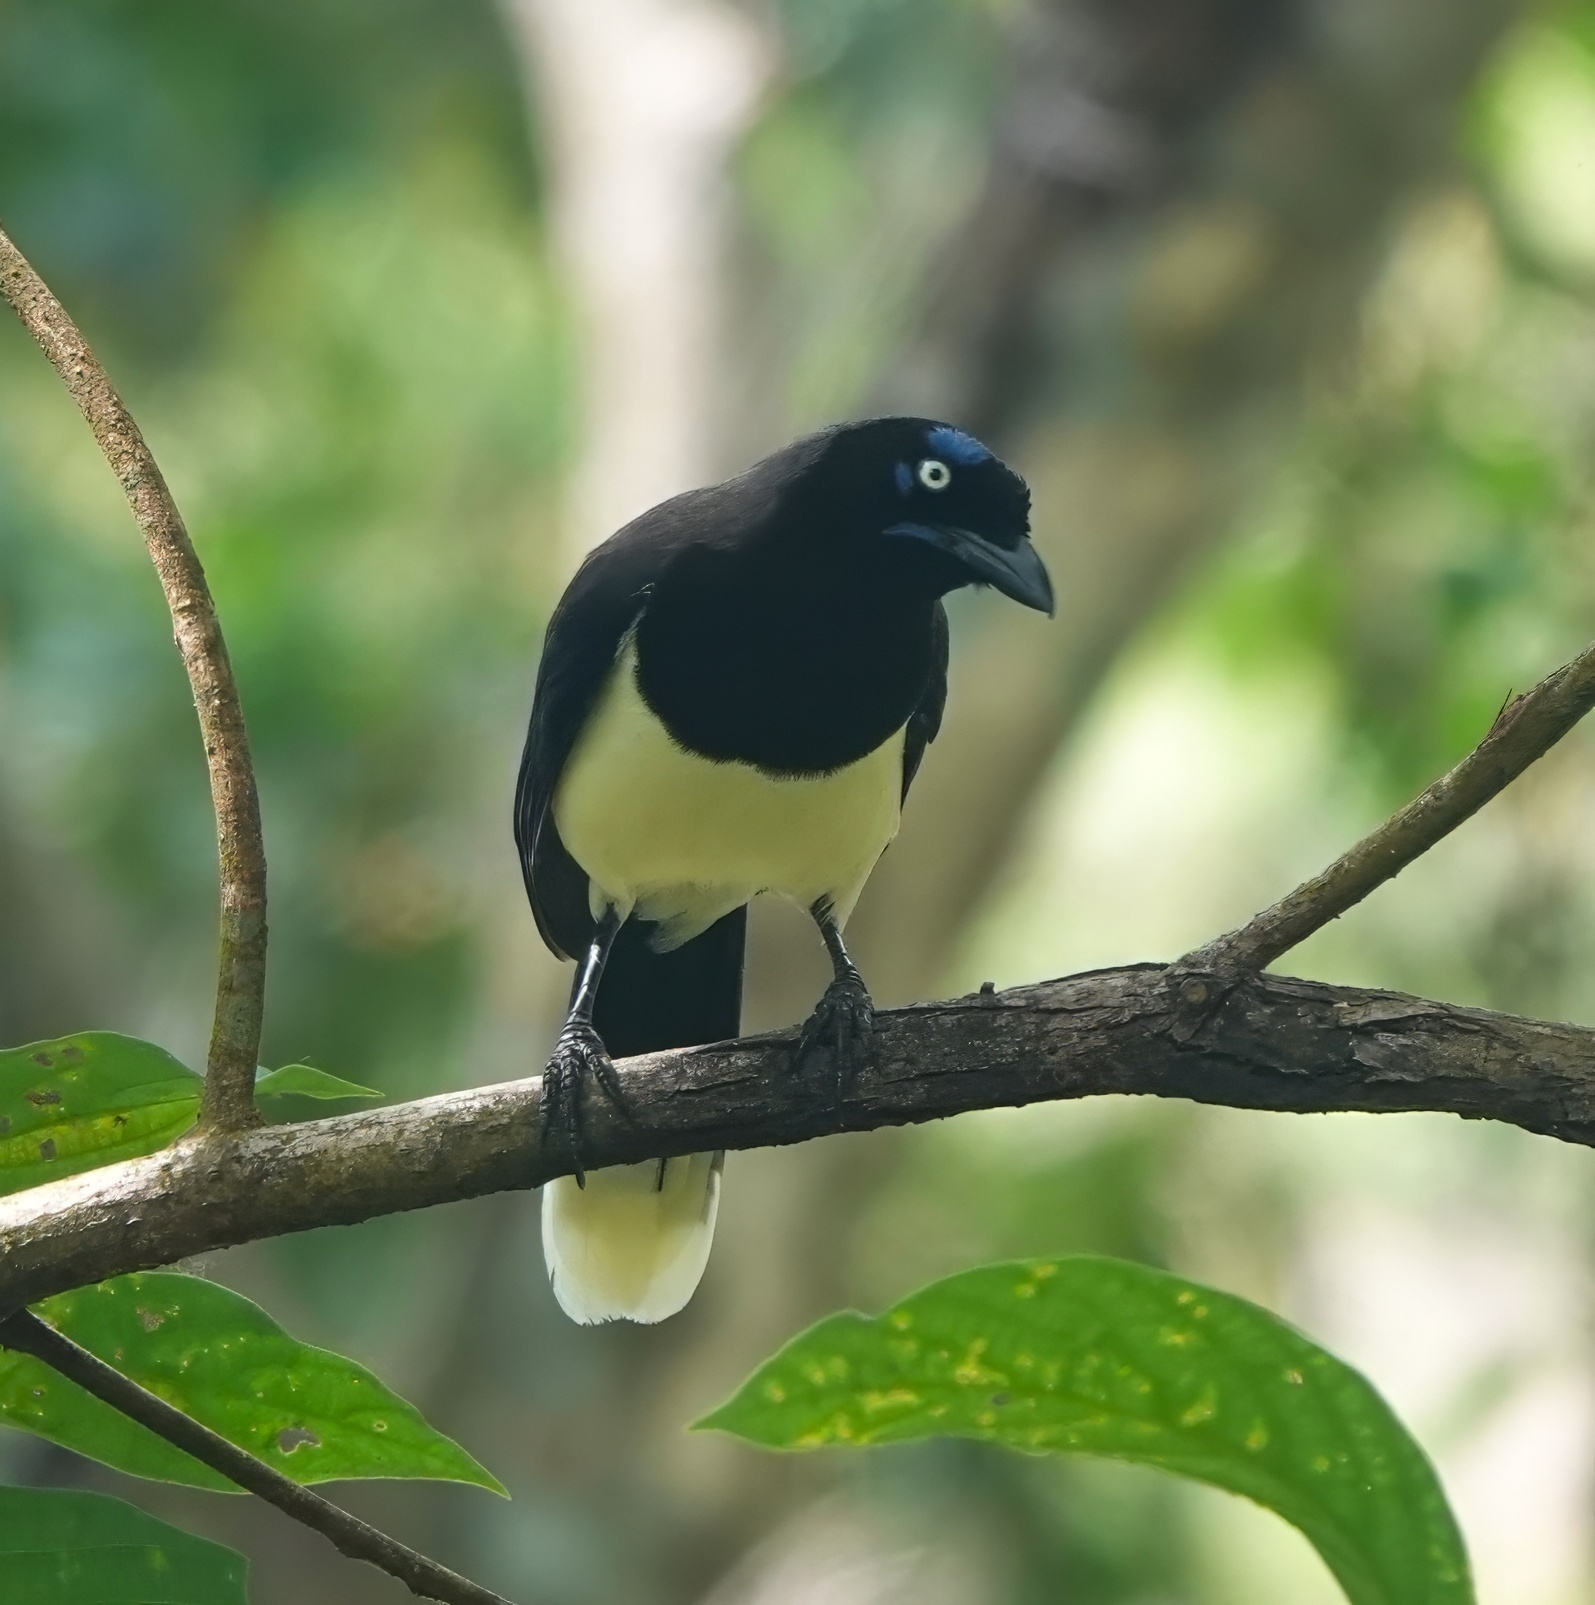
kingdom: Animalia
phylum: Chordata
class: Aves
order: Passeriformes
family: Corvidae
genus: Cyanocorax
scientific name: Cyanocorax affinis
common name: Black-chested jay
